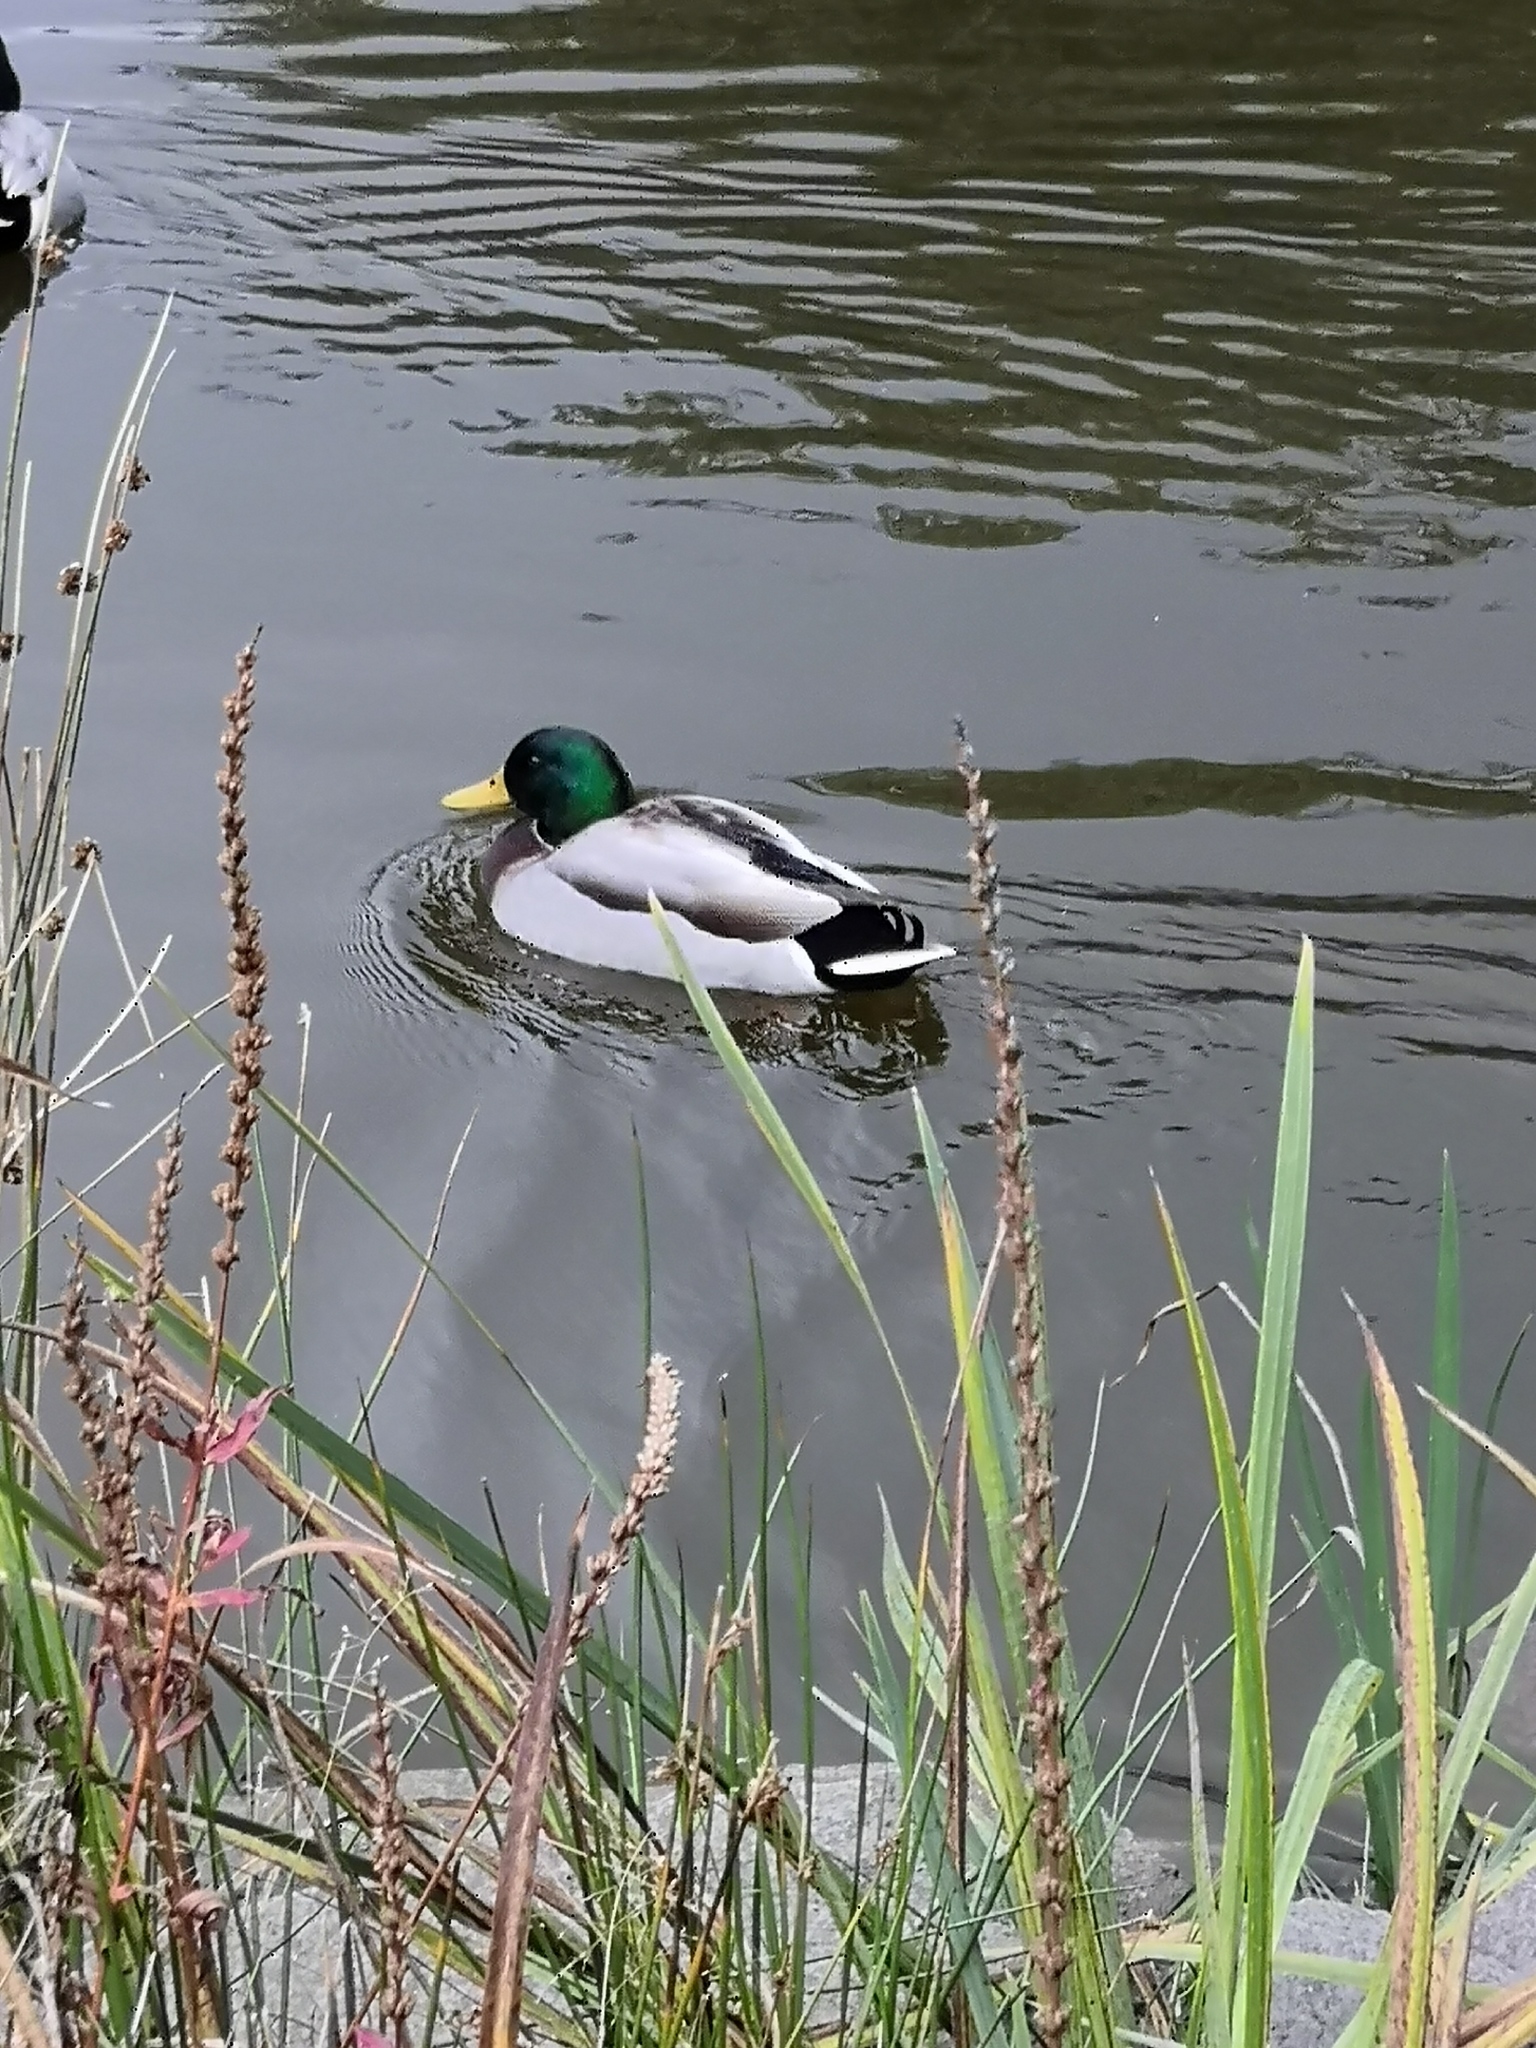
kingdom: Animalia
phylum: Chordata
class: Aves
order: Anseriformes
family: Anatidae
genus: Anas
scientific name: Anas platyrhynchos
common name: Mallard
